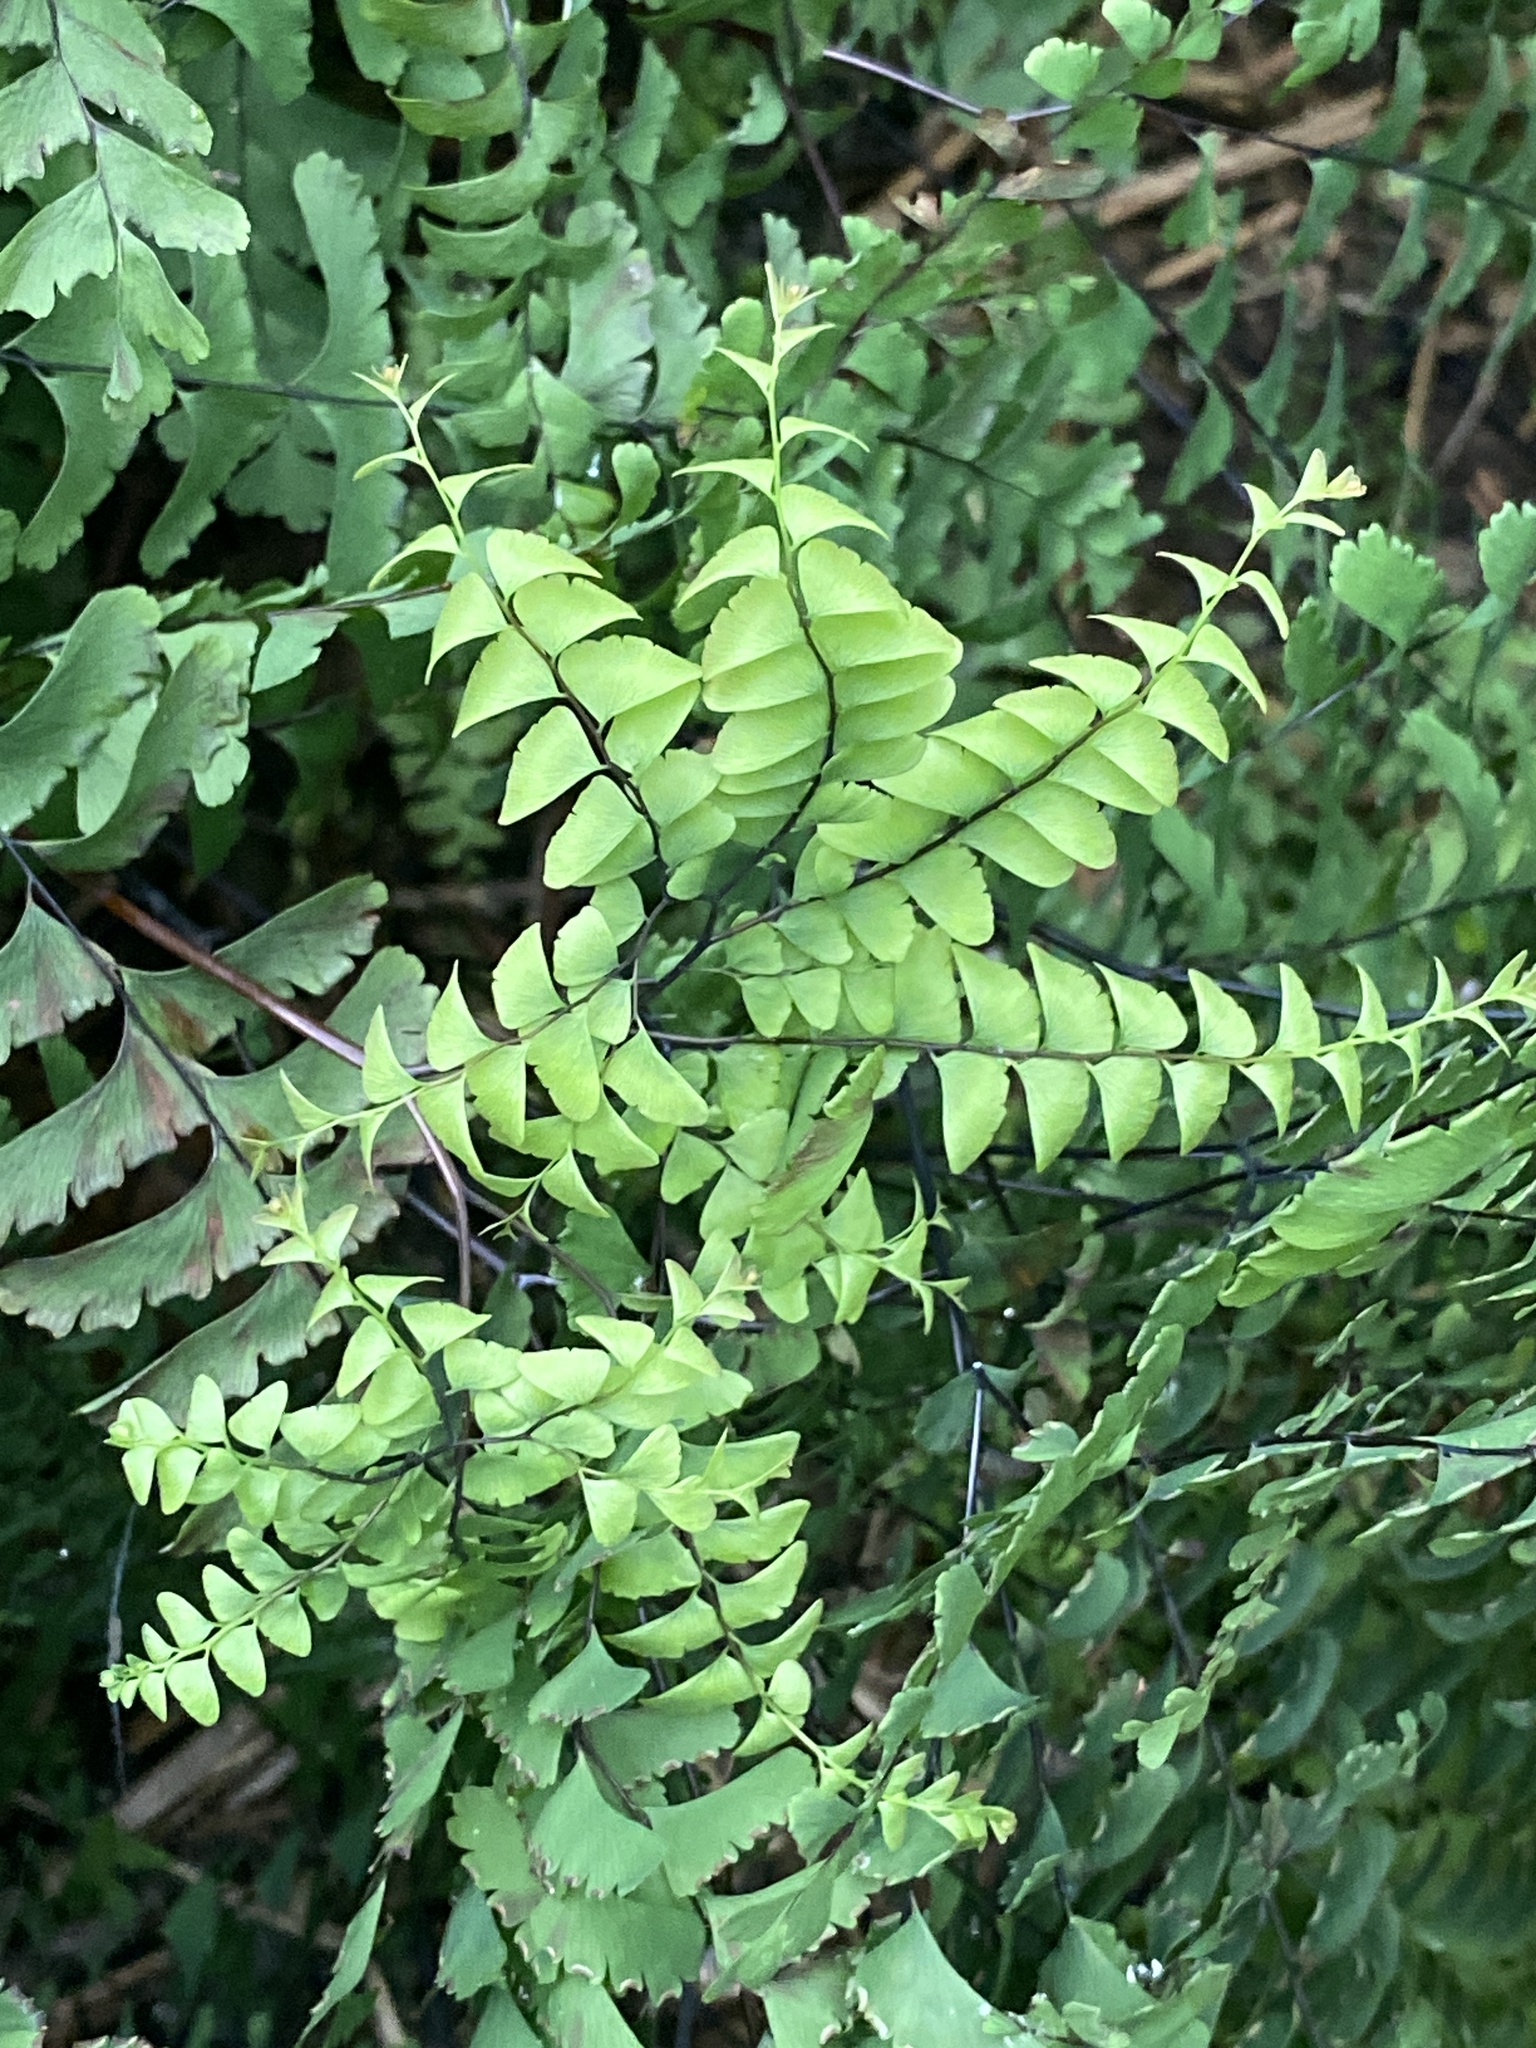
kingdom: Plantae
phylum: Tracheophyta
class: Polypodiopsida
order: Polypodiales
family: Pteridaceae
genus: Adiantum
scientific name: Adiantum pedatum
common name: Five-finger fern
